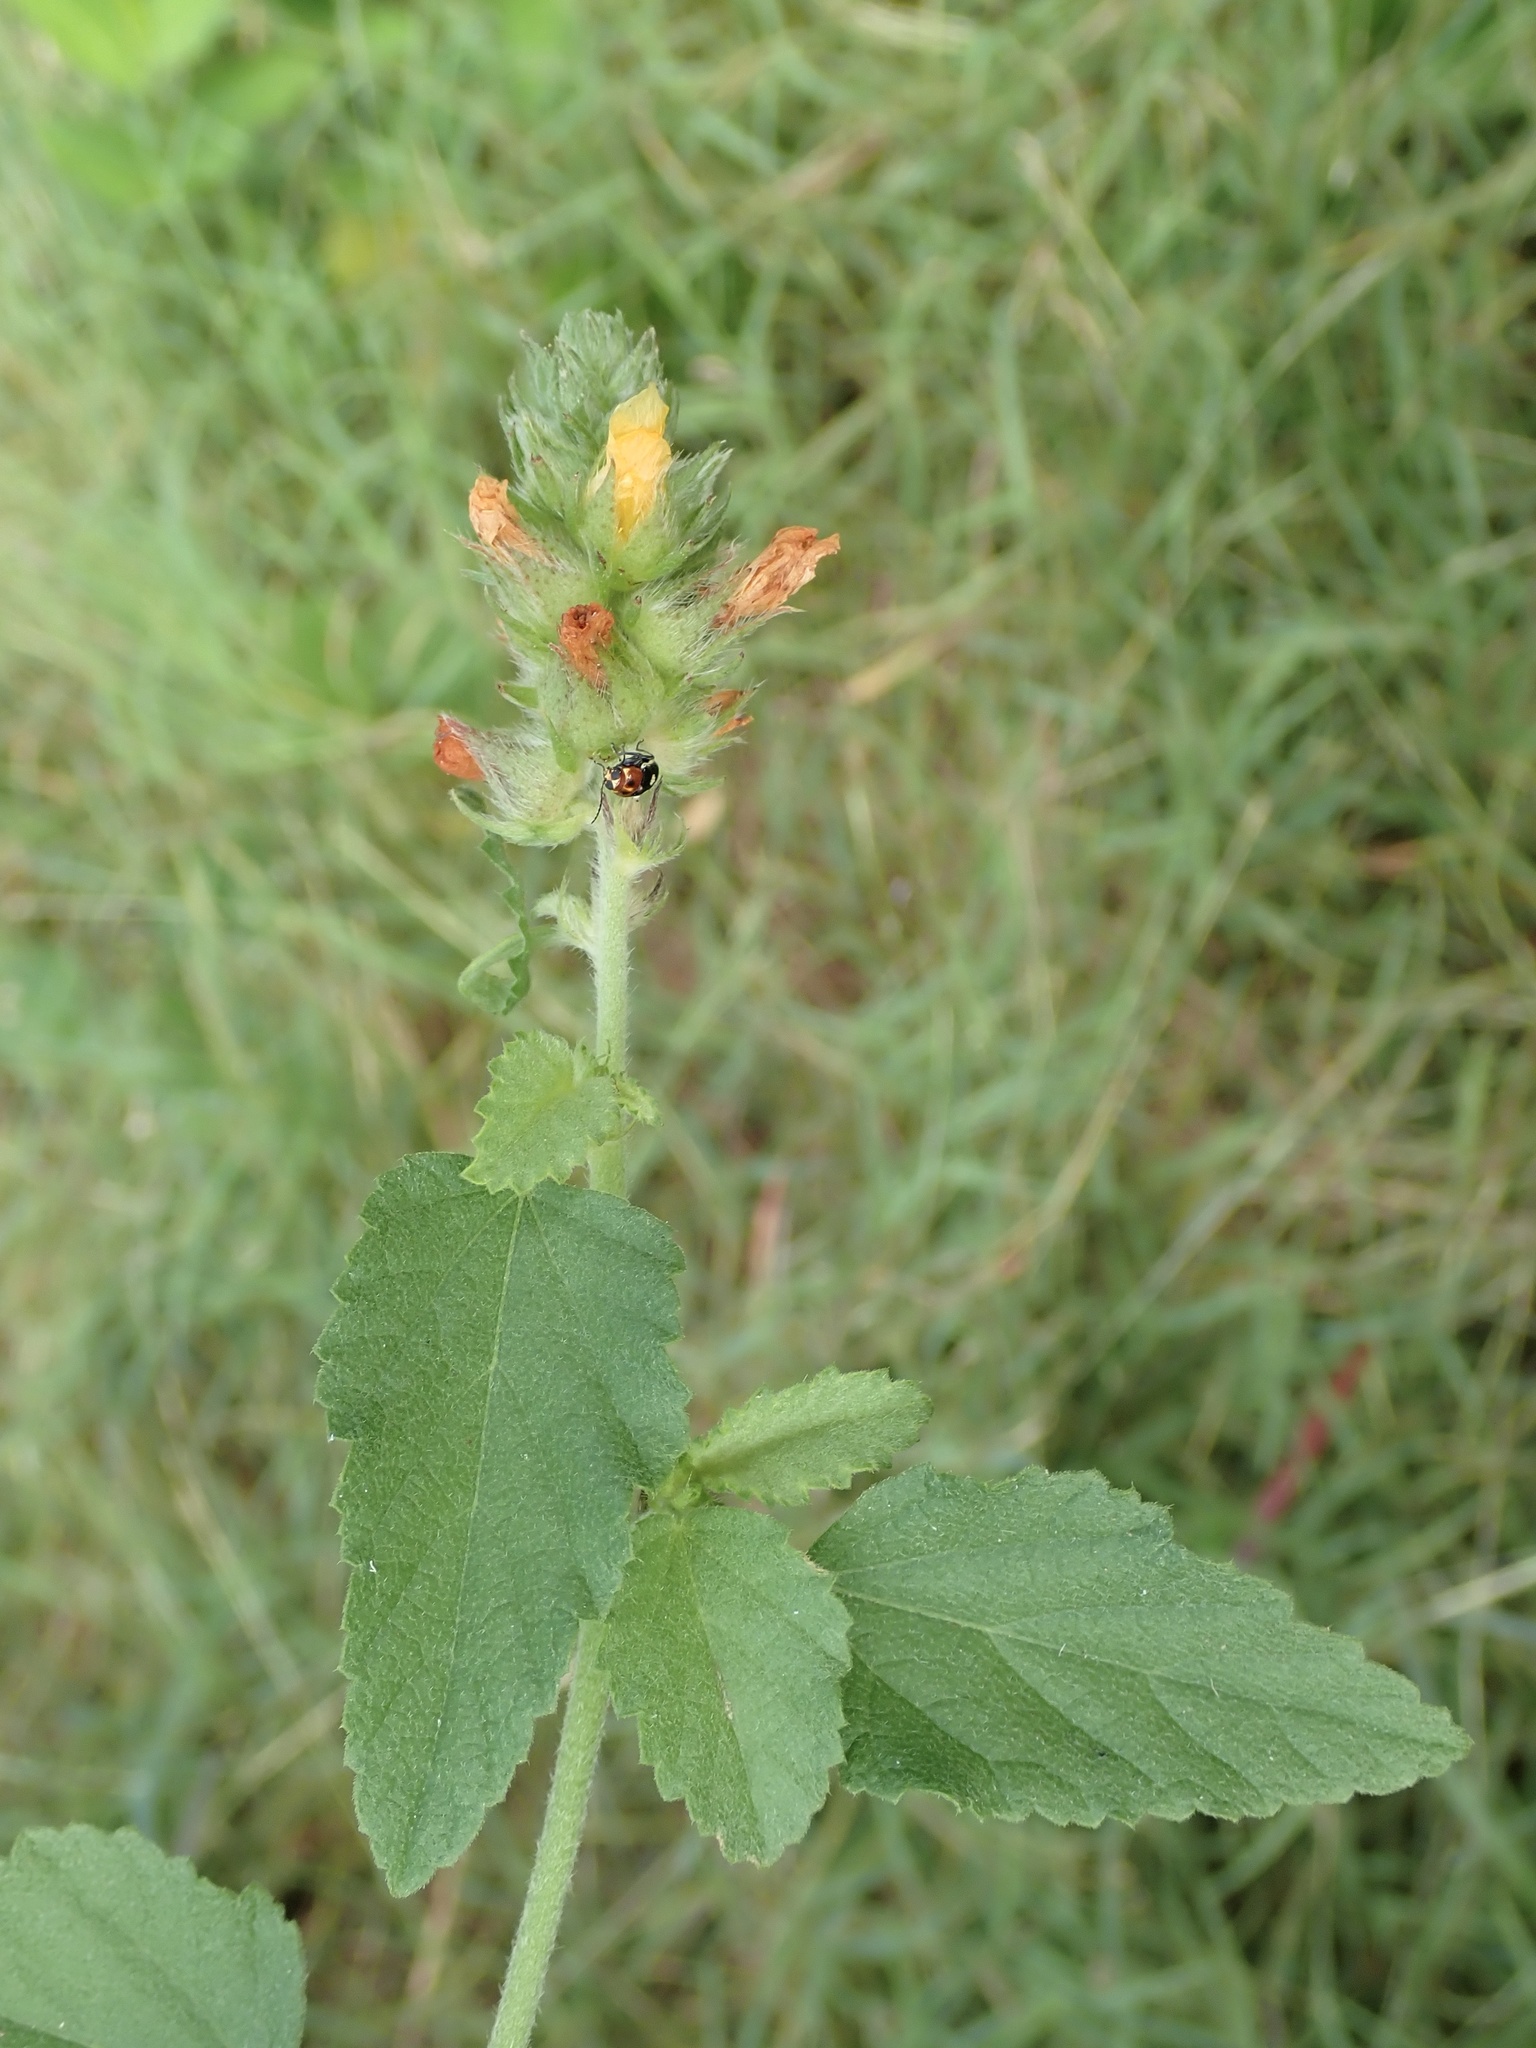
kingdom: Plantae
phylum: Tracheophyta
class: Magnoliopsida
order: Malvales
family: Malvaceae
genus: Malvastrum
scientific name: Malvastrum americanum
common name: Spiked malvastrum
